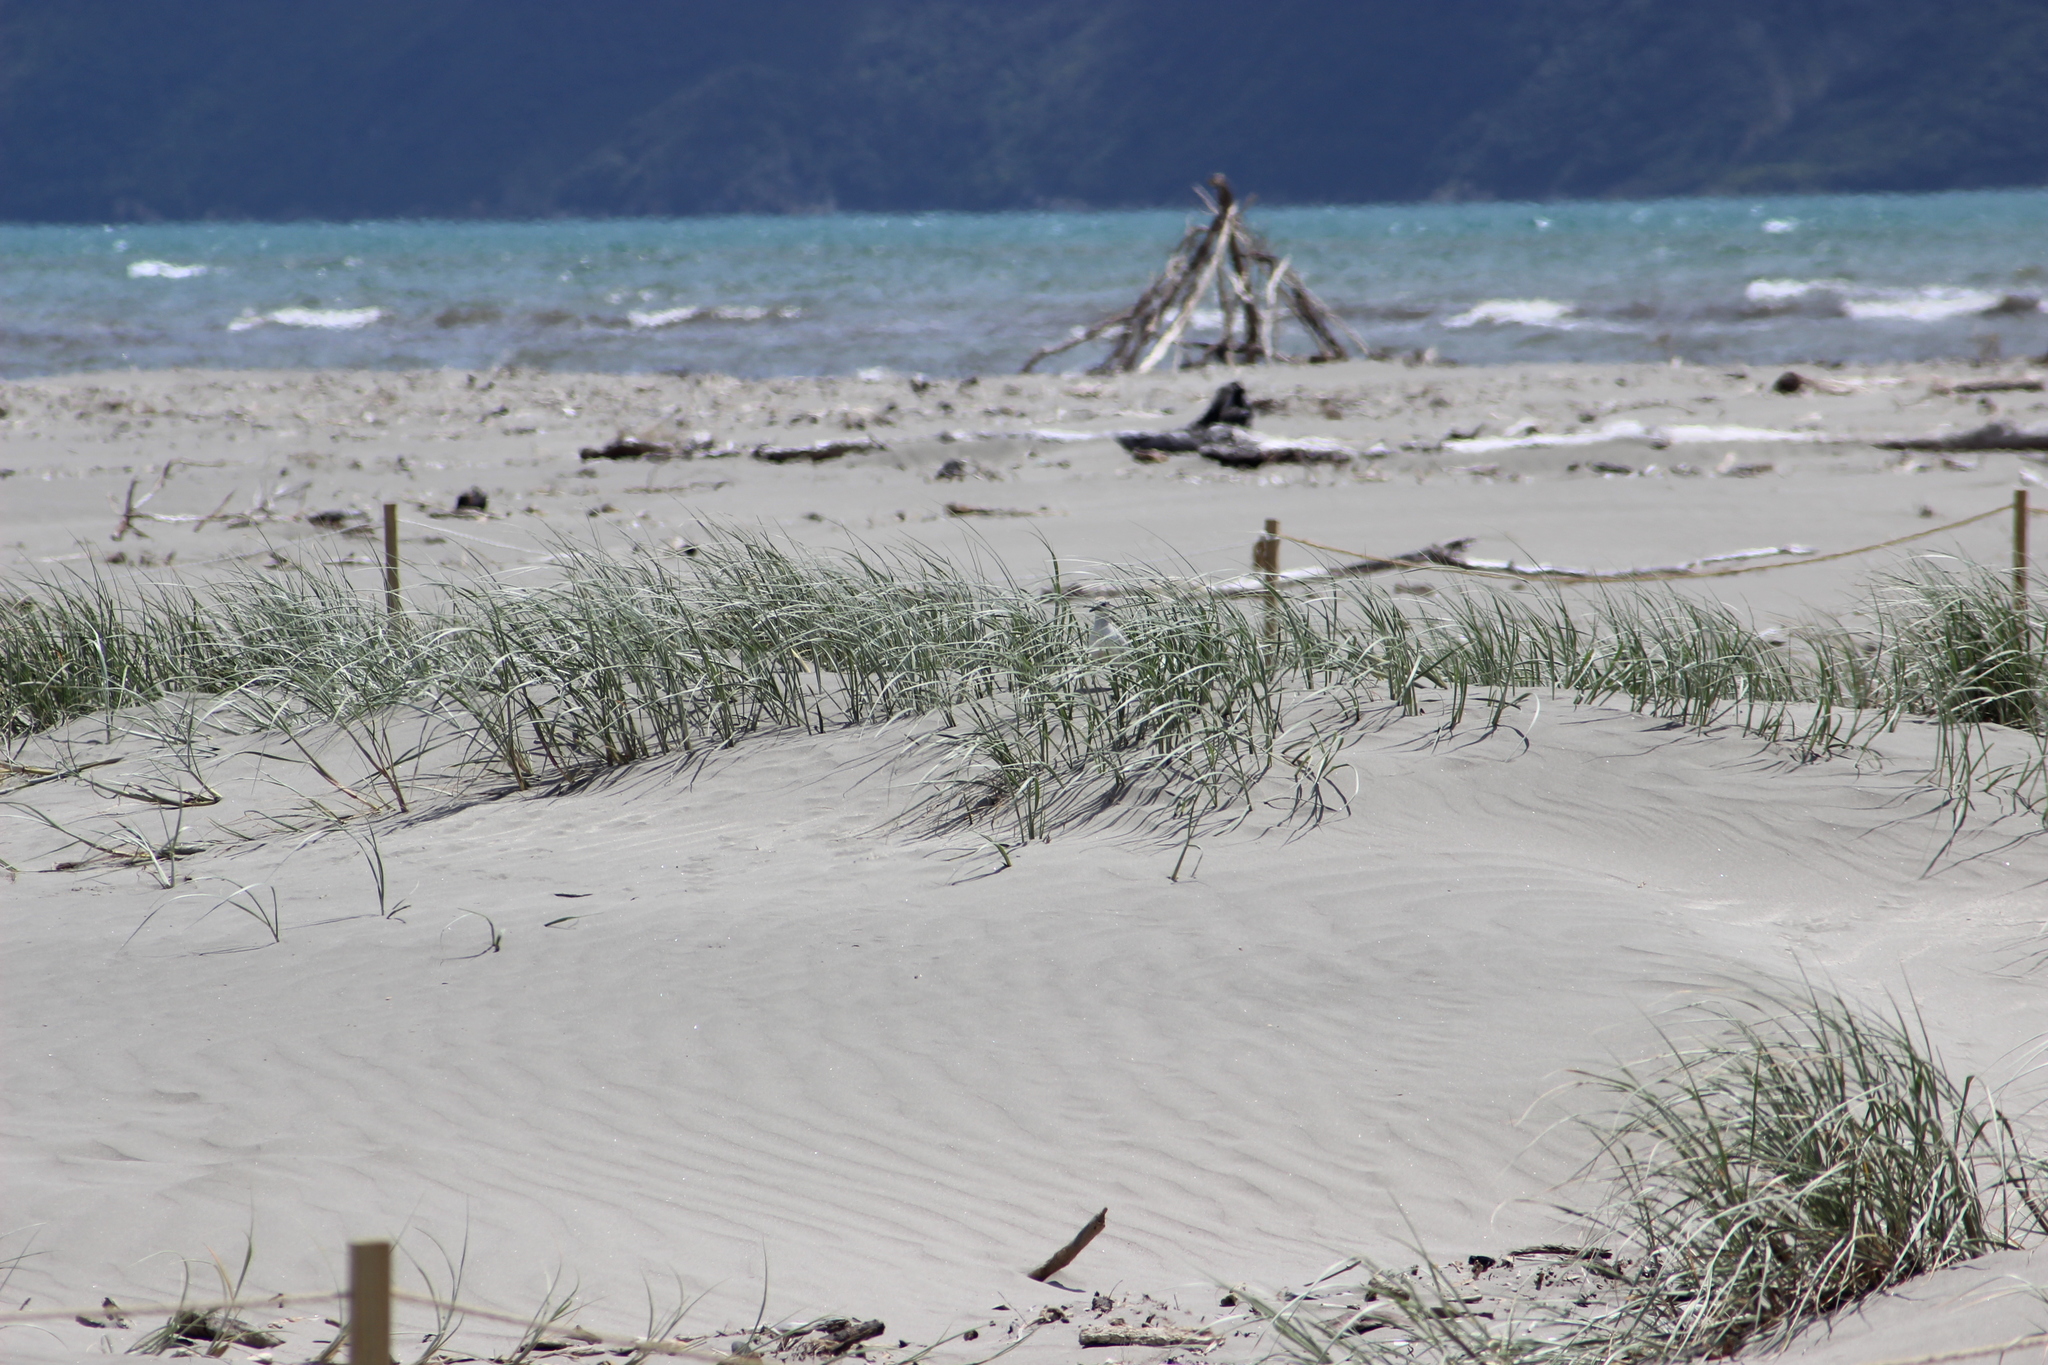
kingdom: Plantae
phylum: Tracheophyta
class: Liliopsida
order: Poales
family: Poaceae
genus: Spinifex
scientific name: Spinifex sericeus
